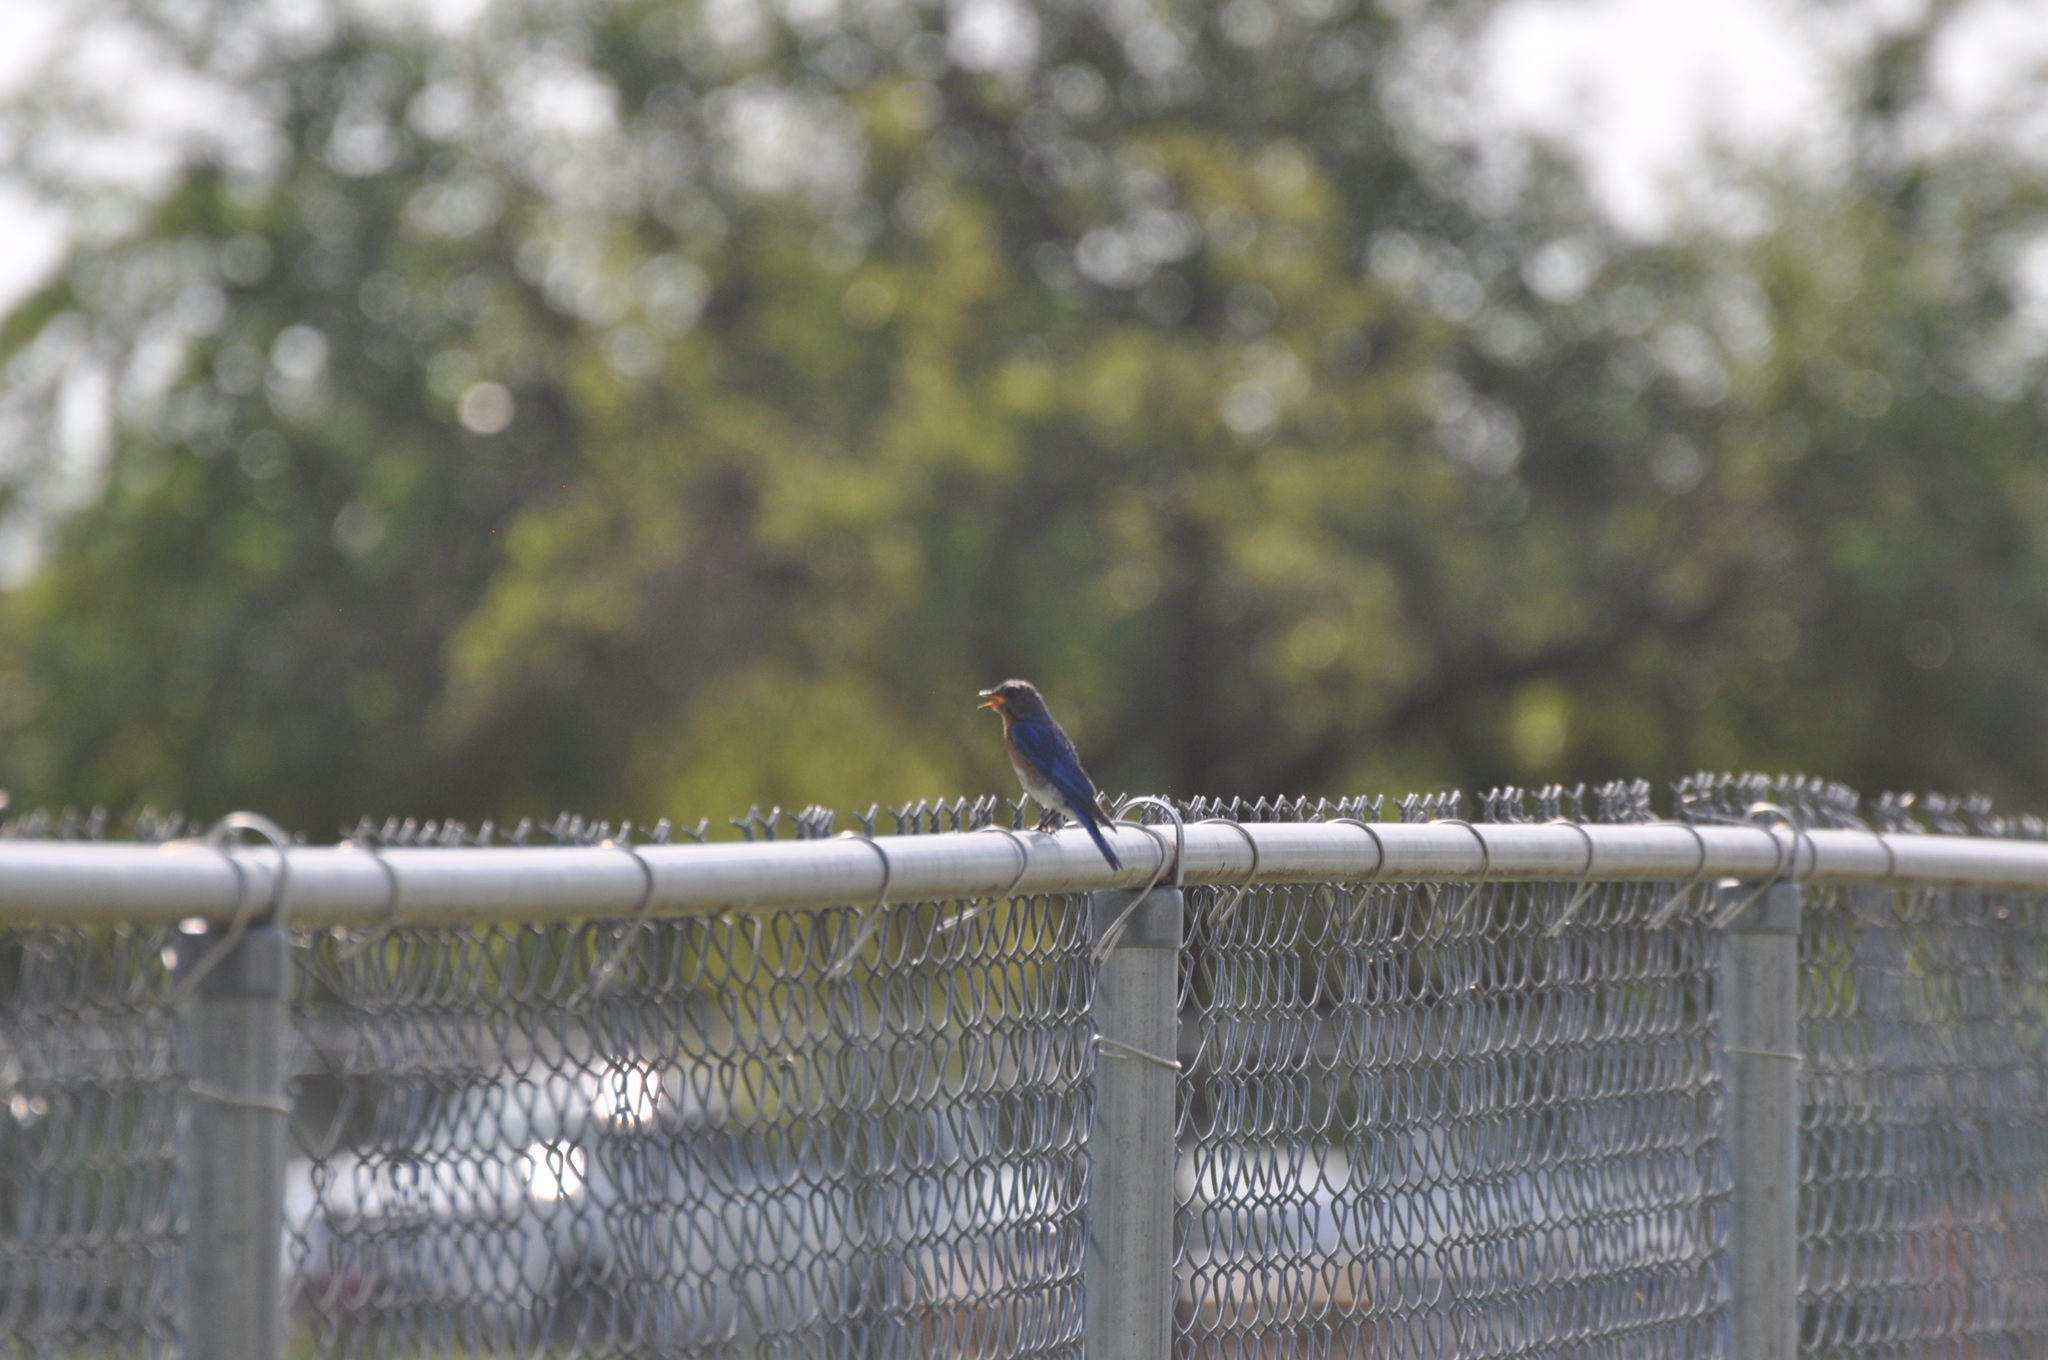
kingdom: Animalia
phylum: Chordata
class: Aves
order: Passeriformes
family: Turdidae
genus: Sialia
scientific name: Sialia sialis
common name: Eastern bluebird
